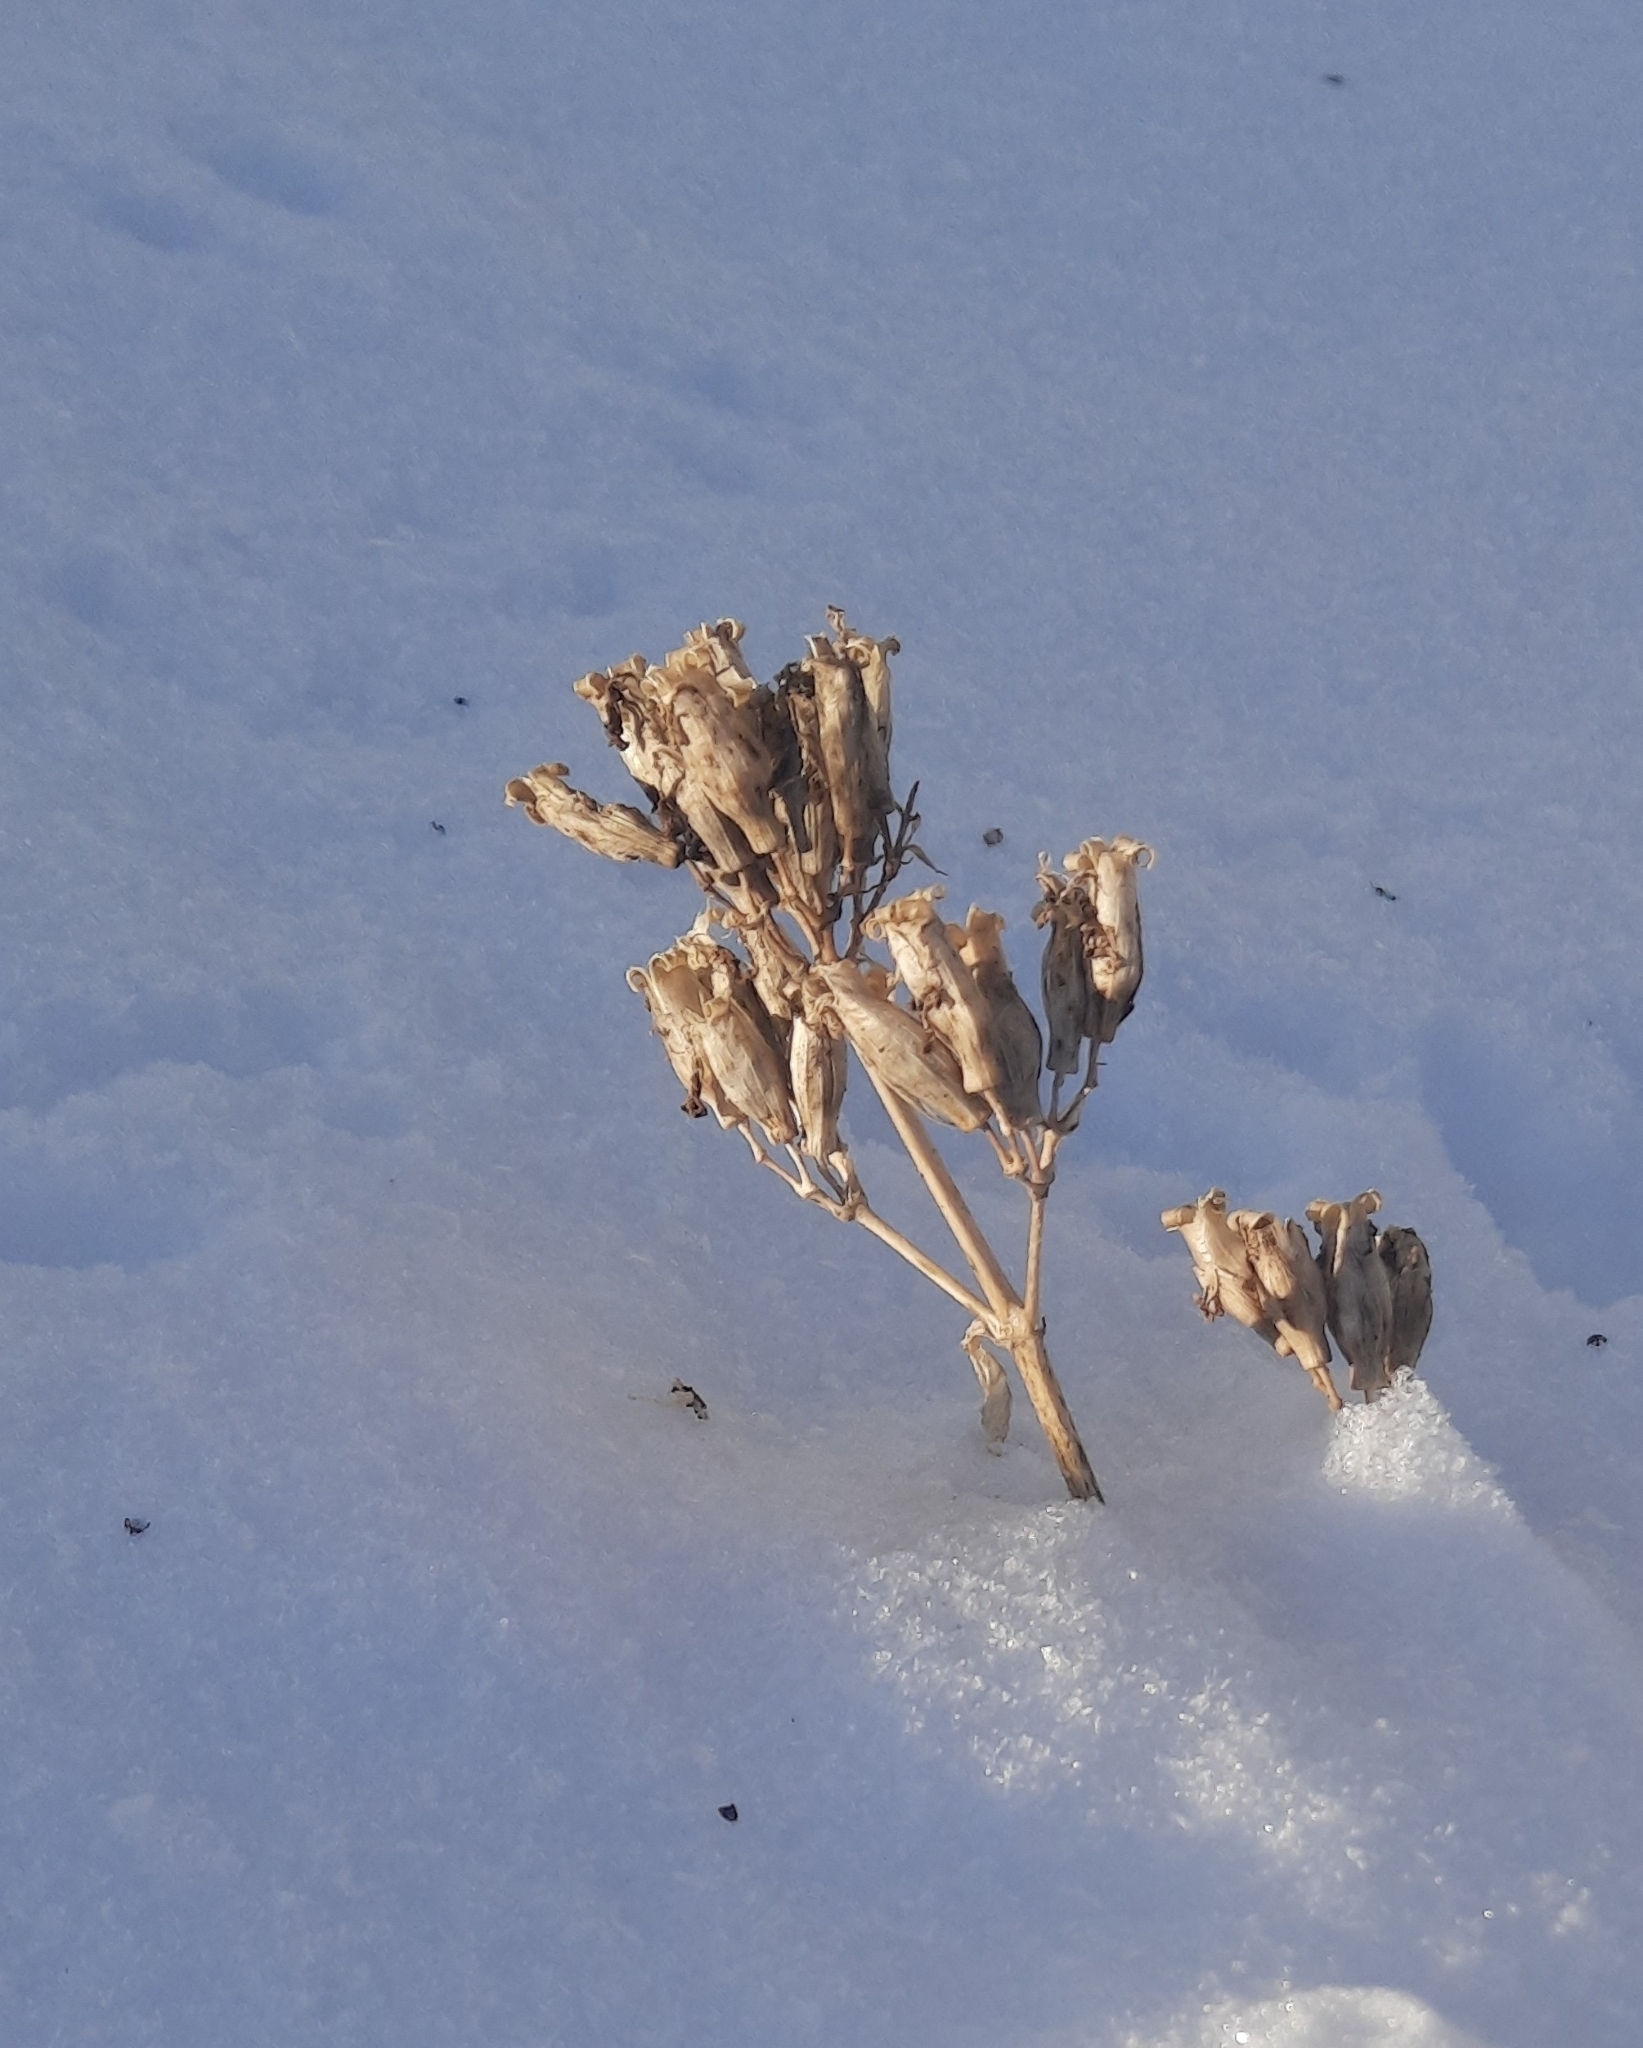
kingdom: Plantae
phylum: Tracheophyta
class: Magnoliopsida
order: Caryophyllales
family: Caryophyllaceae
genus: Saponaria
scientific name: Saponaria officinalis
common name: Soapwort
